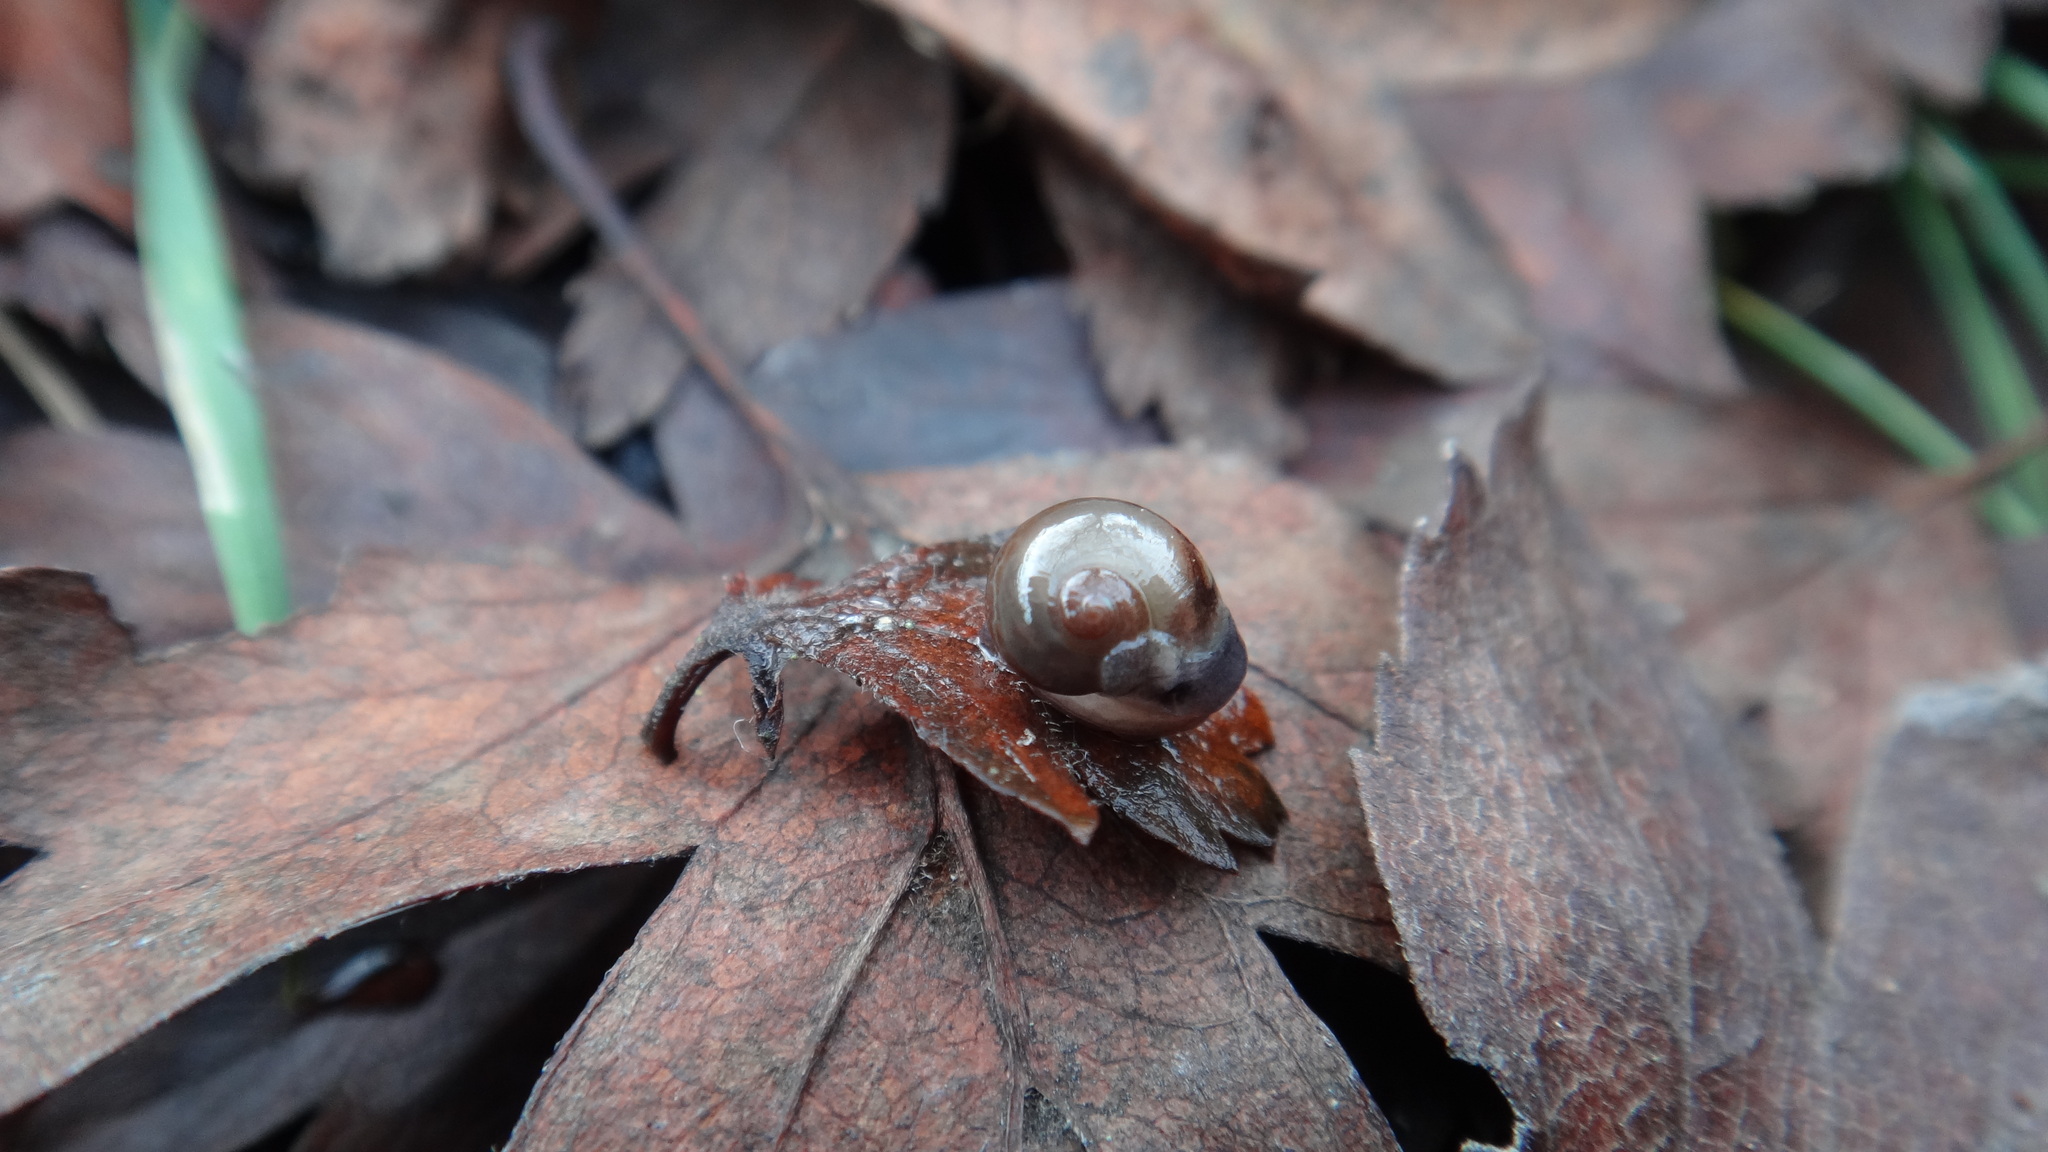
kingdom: Animalia
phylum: Mollusca
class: Gastropoda
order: Stylommatophora
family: Vitrinidae
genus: Vitrina
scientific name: Vitrina pellucida
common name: Pellucid glass snail
